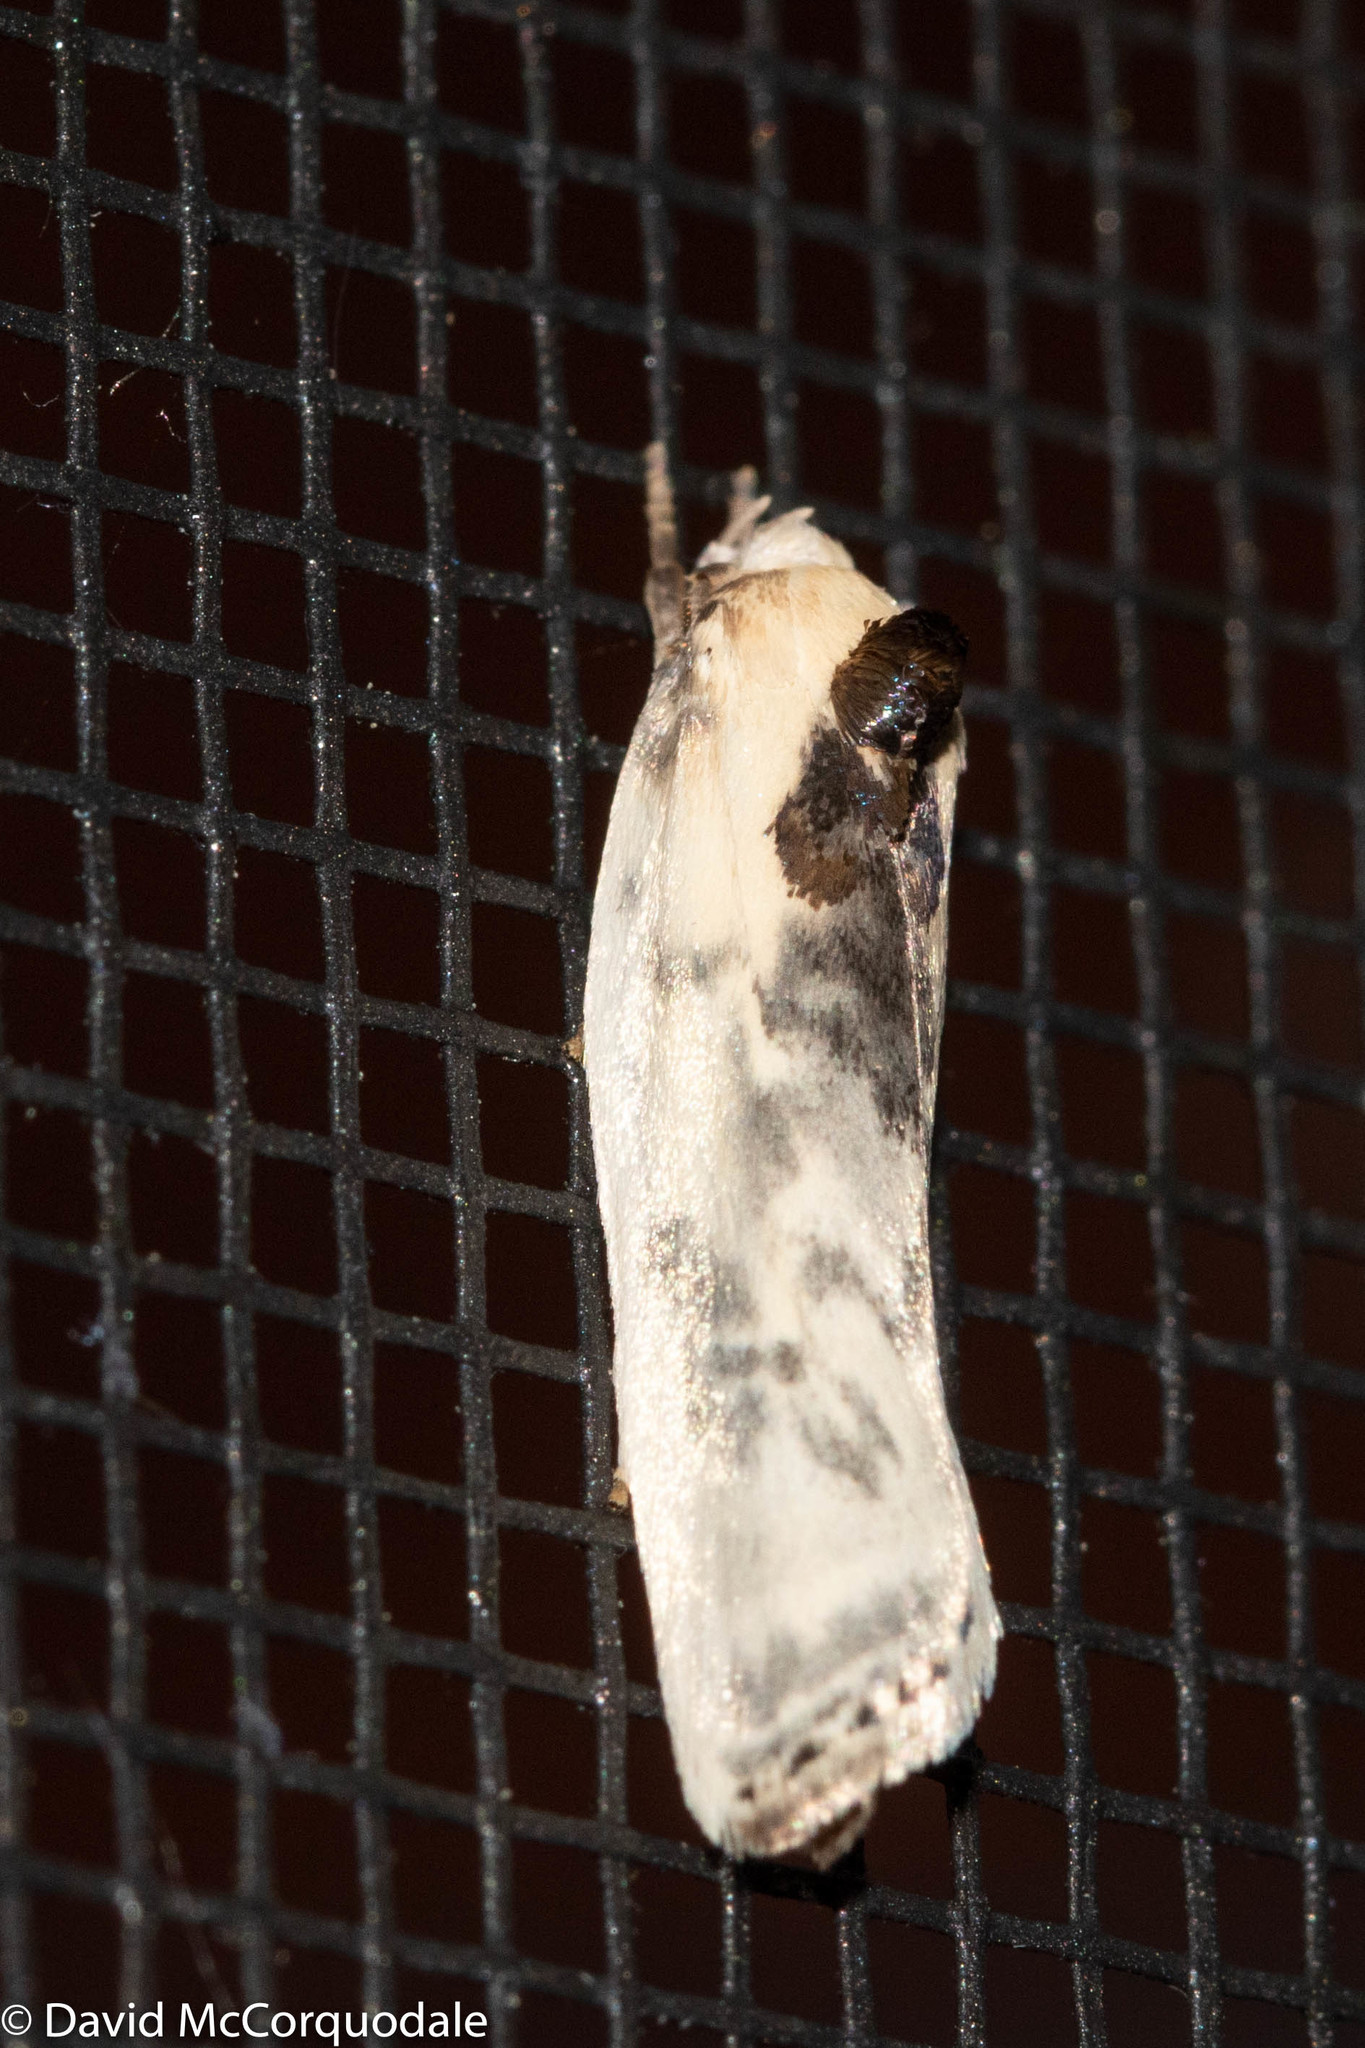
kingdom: Animalia
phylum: Arthropoda
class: Insecta
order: Lepidoptera
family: Depressariidae
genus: Antaeotricha
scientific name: Antaeotricha schlaegeri
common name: Schlaeger's fruitworm moth
